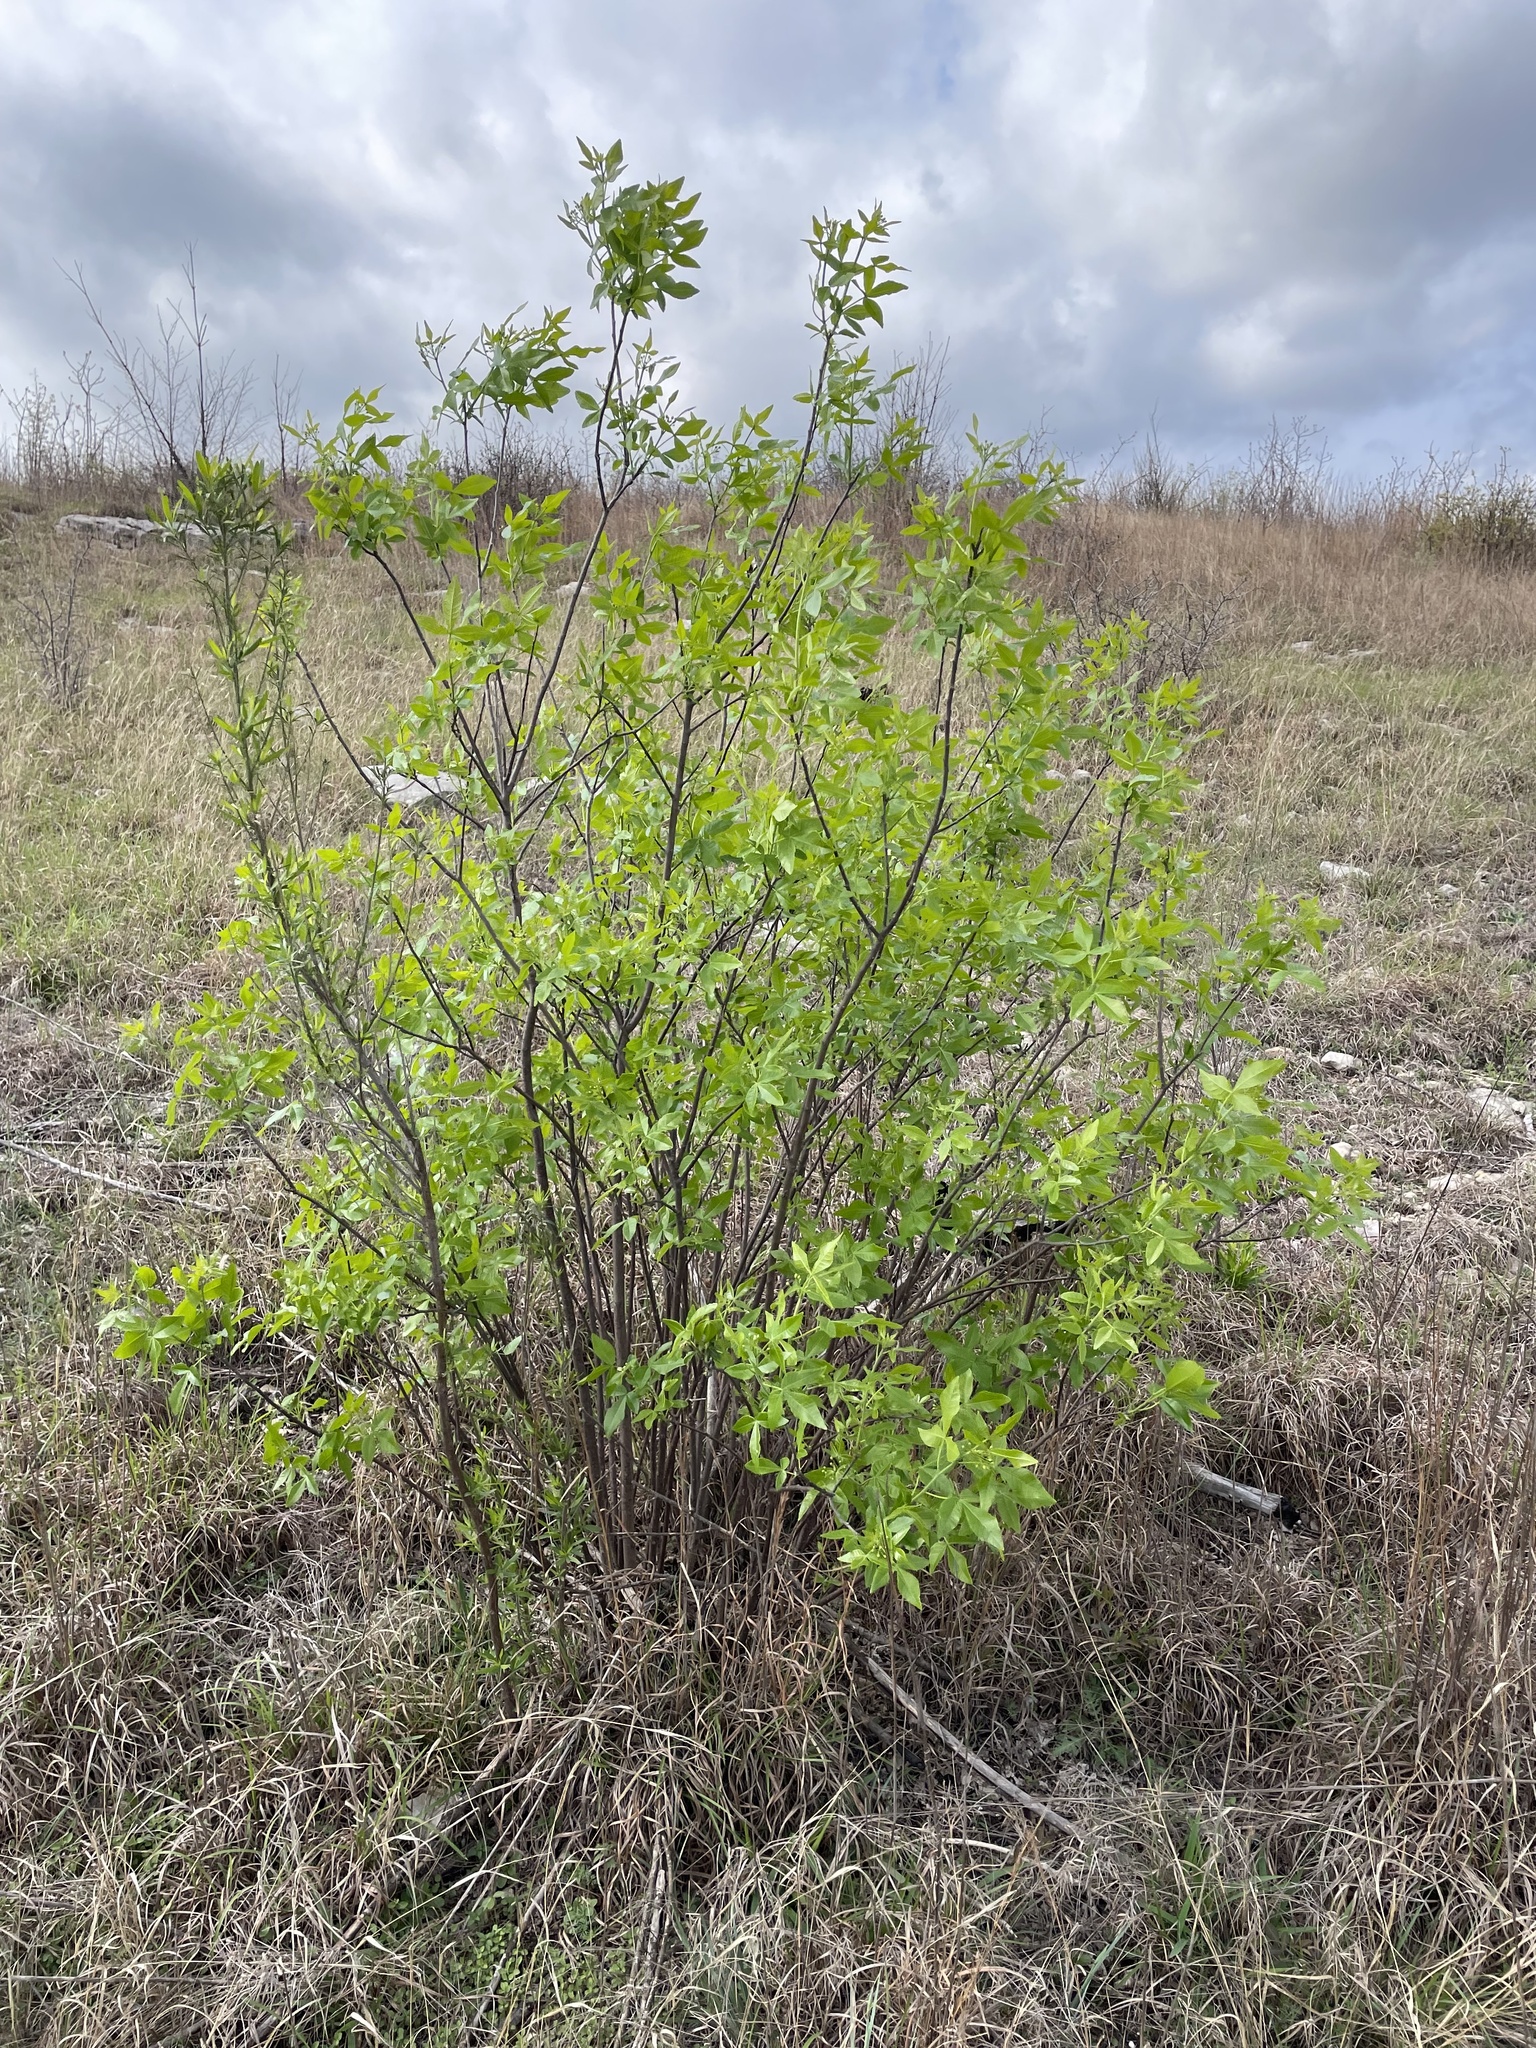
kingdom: Plantae
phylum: Tracheophyta
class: Magnoliopsida
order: Sapindales
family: Rutaceae
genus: Ptelea
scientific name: Ptelea trifoliata
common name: Common hop-tree
